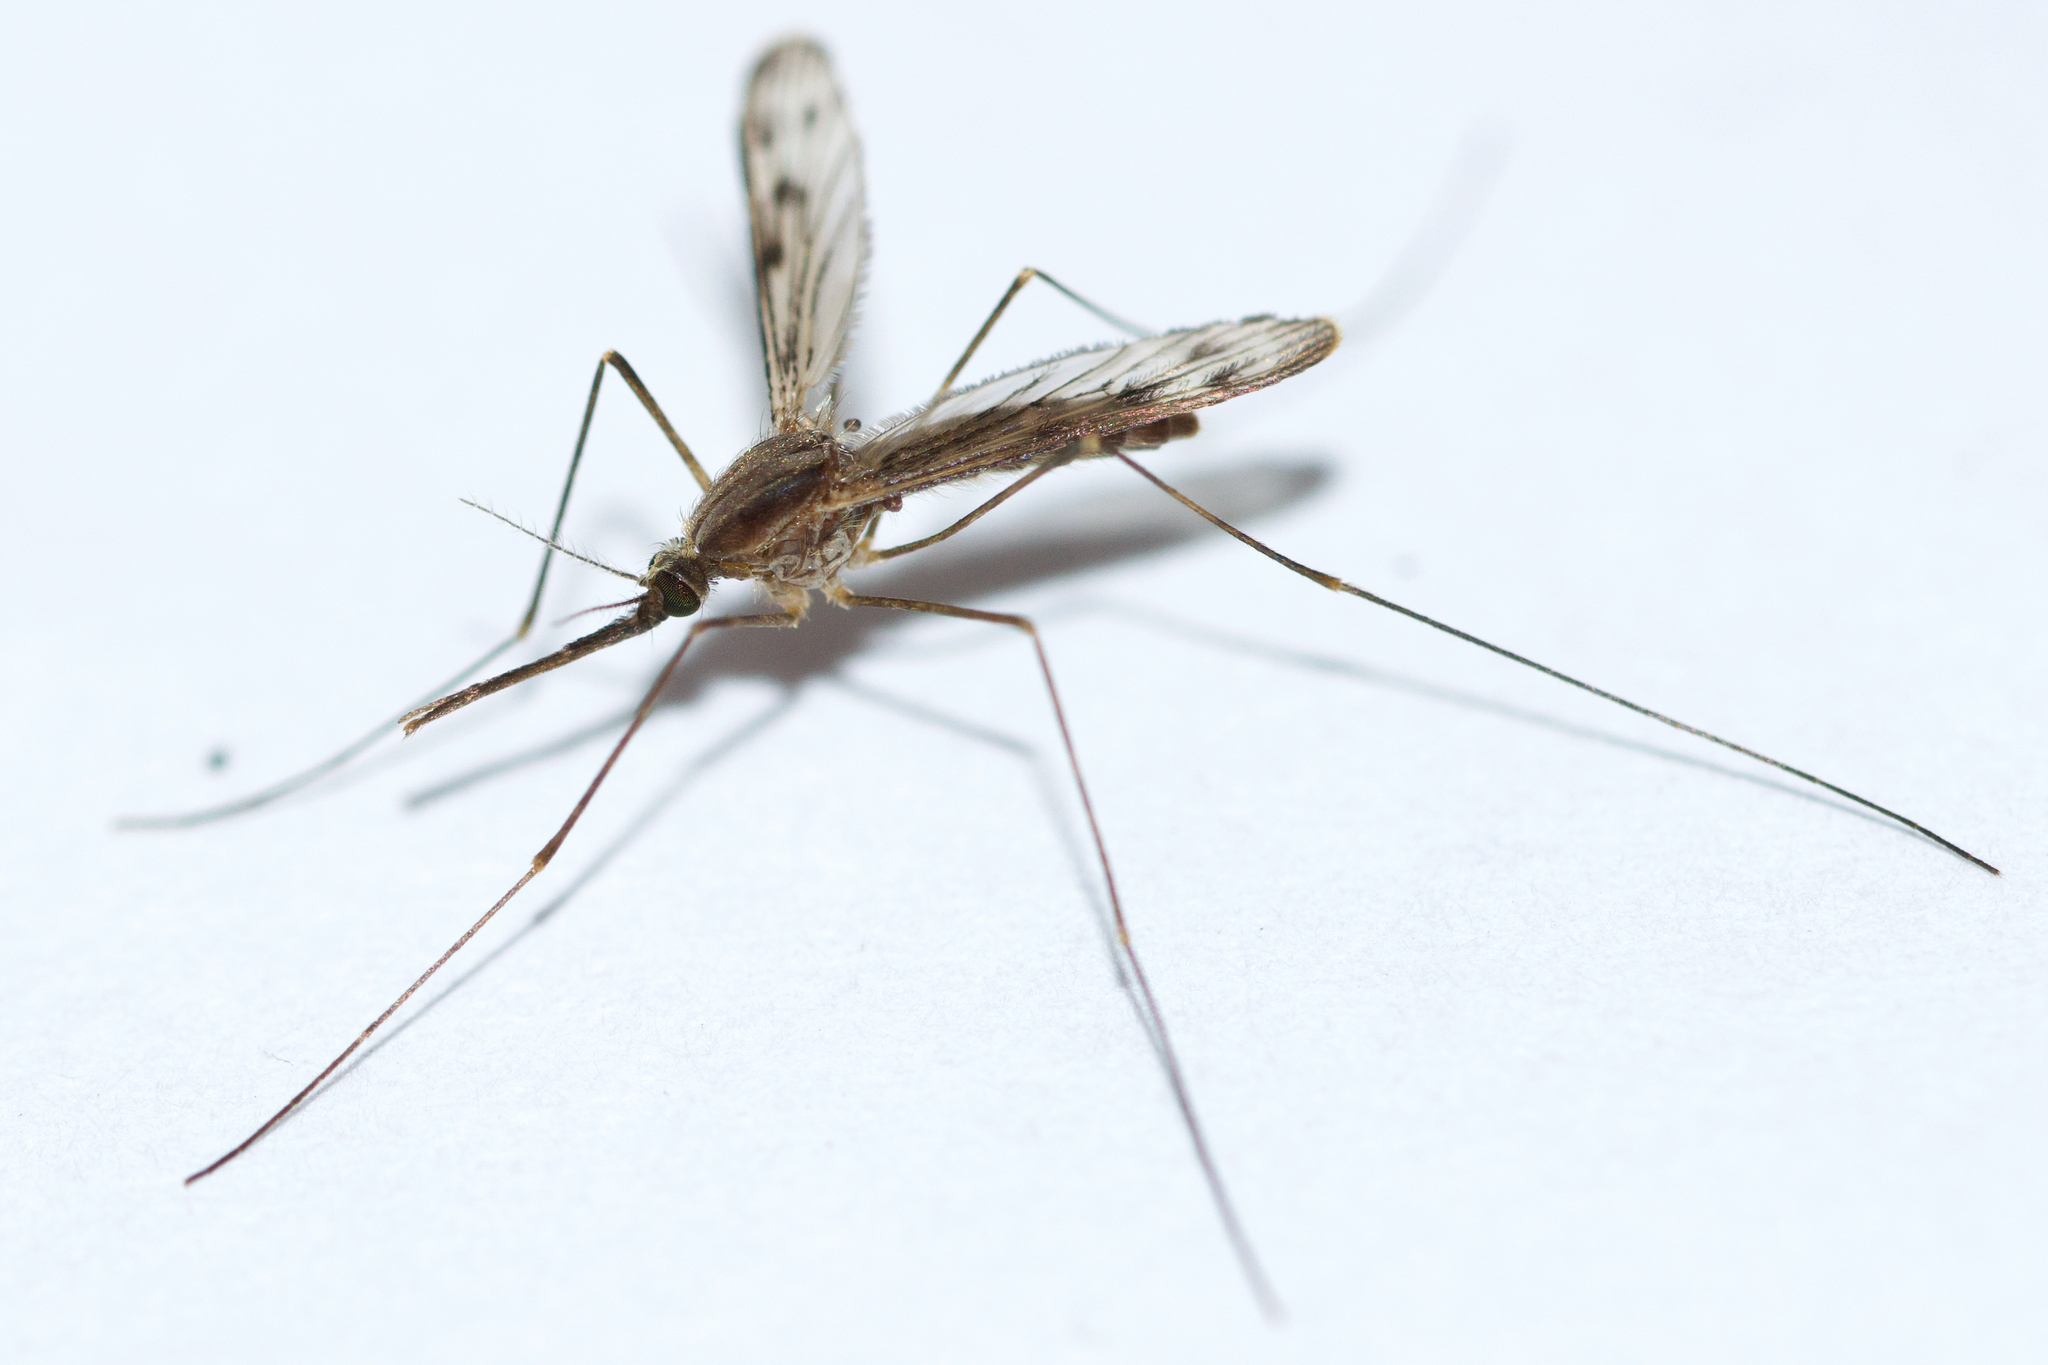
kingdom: Animalia
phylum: Arthropoda
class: Insecta
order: Diptera
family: Culicidae
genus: Anopheles
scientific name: Anopheles earlei
